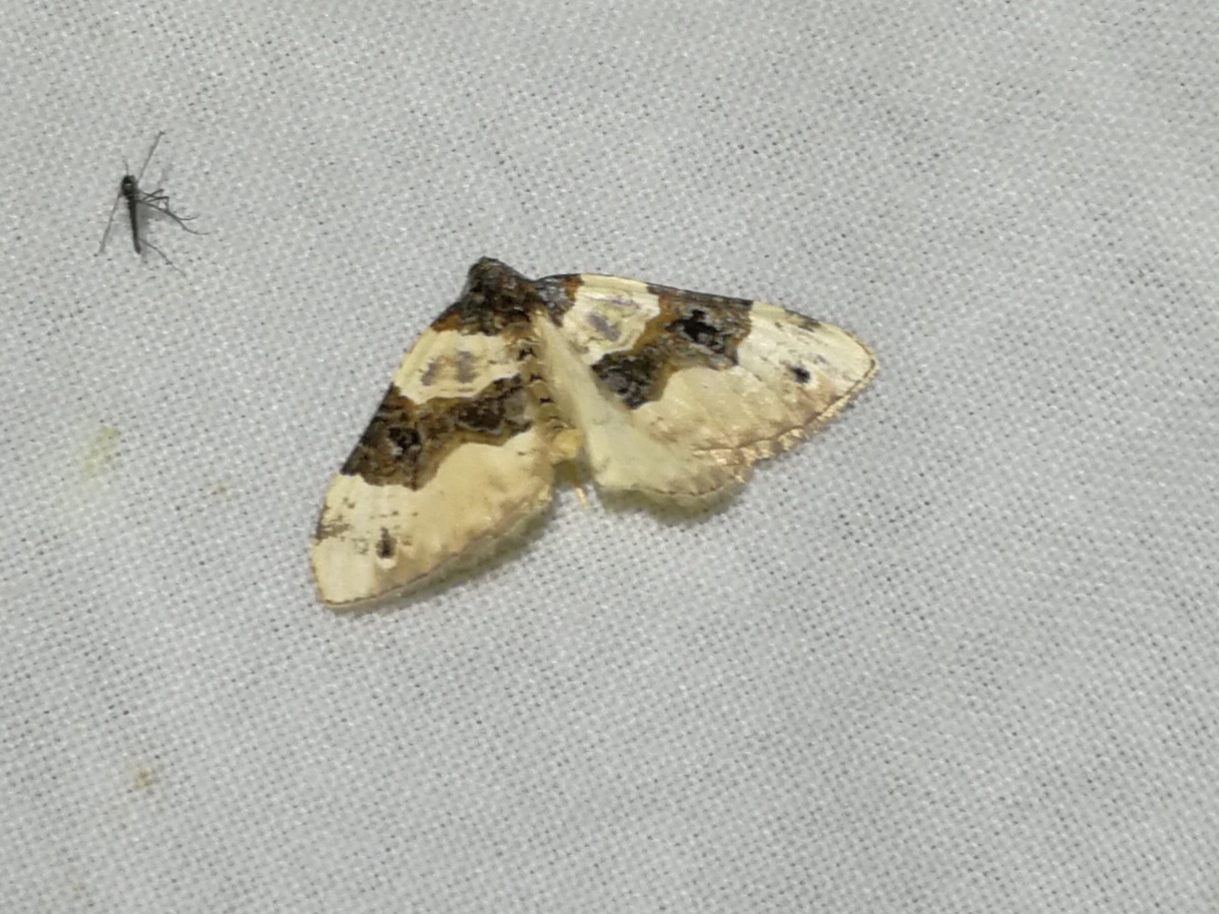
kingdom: Animalia
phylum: Arthropoda
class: Insecta
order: Lepidoptera
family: Geometridae
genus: Cosmorhoe
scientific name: Cosmorhoe ocellata
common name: Purple bar
